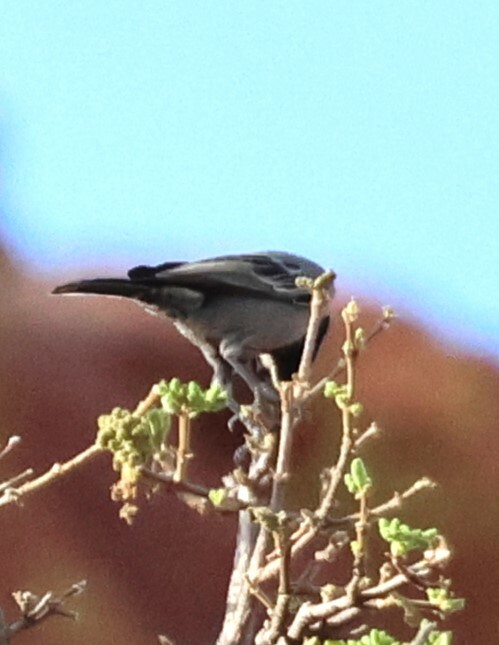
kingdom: Animalia
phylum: Chordata
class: Aves
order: Passeriformes
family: Paridae
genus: Parus
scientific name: Parus cinerascens
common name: Ashy tit
